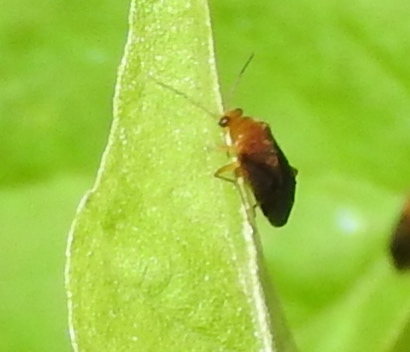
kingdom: Animalia
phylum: Arthropoda
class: Insecta
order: Hemiptera
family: Miridae
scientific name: Miridae
